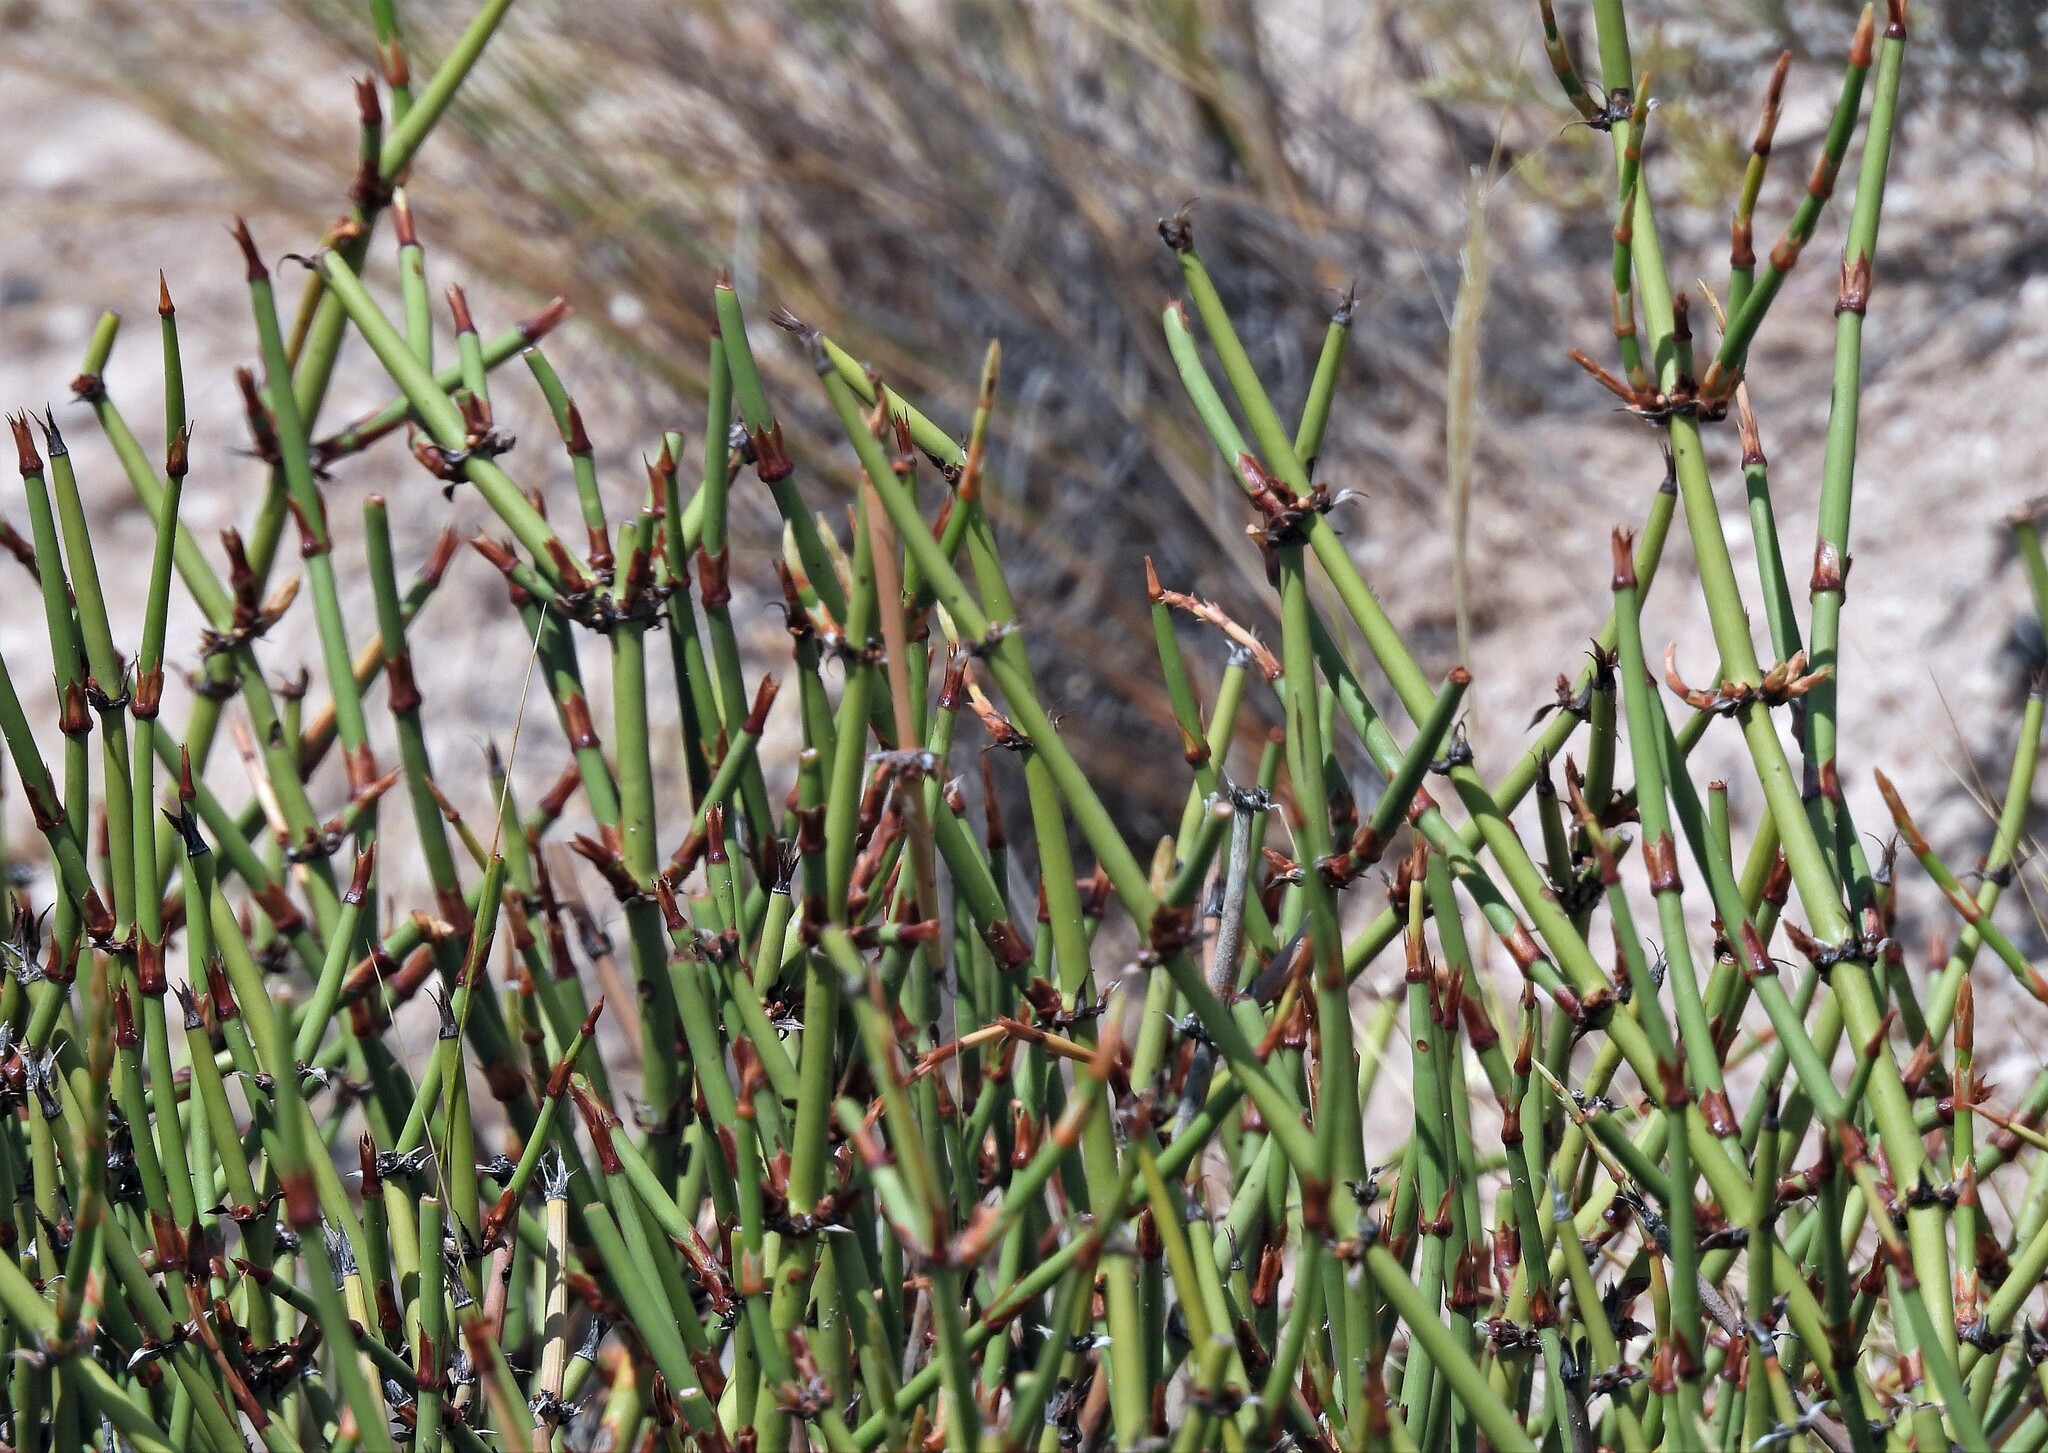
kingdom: Plantae
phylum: Tracheophyta
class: Gnetopsida
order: Ephedrales
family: Ephedraceae
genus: Ephedra
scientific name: Ephedra ochreata
